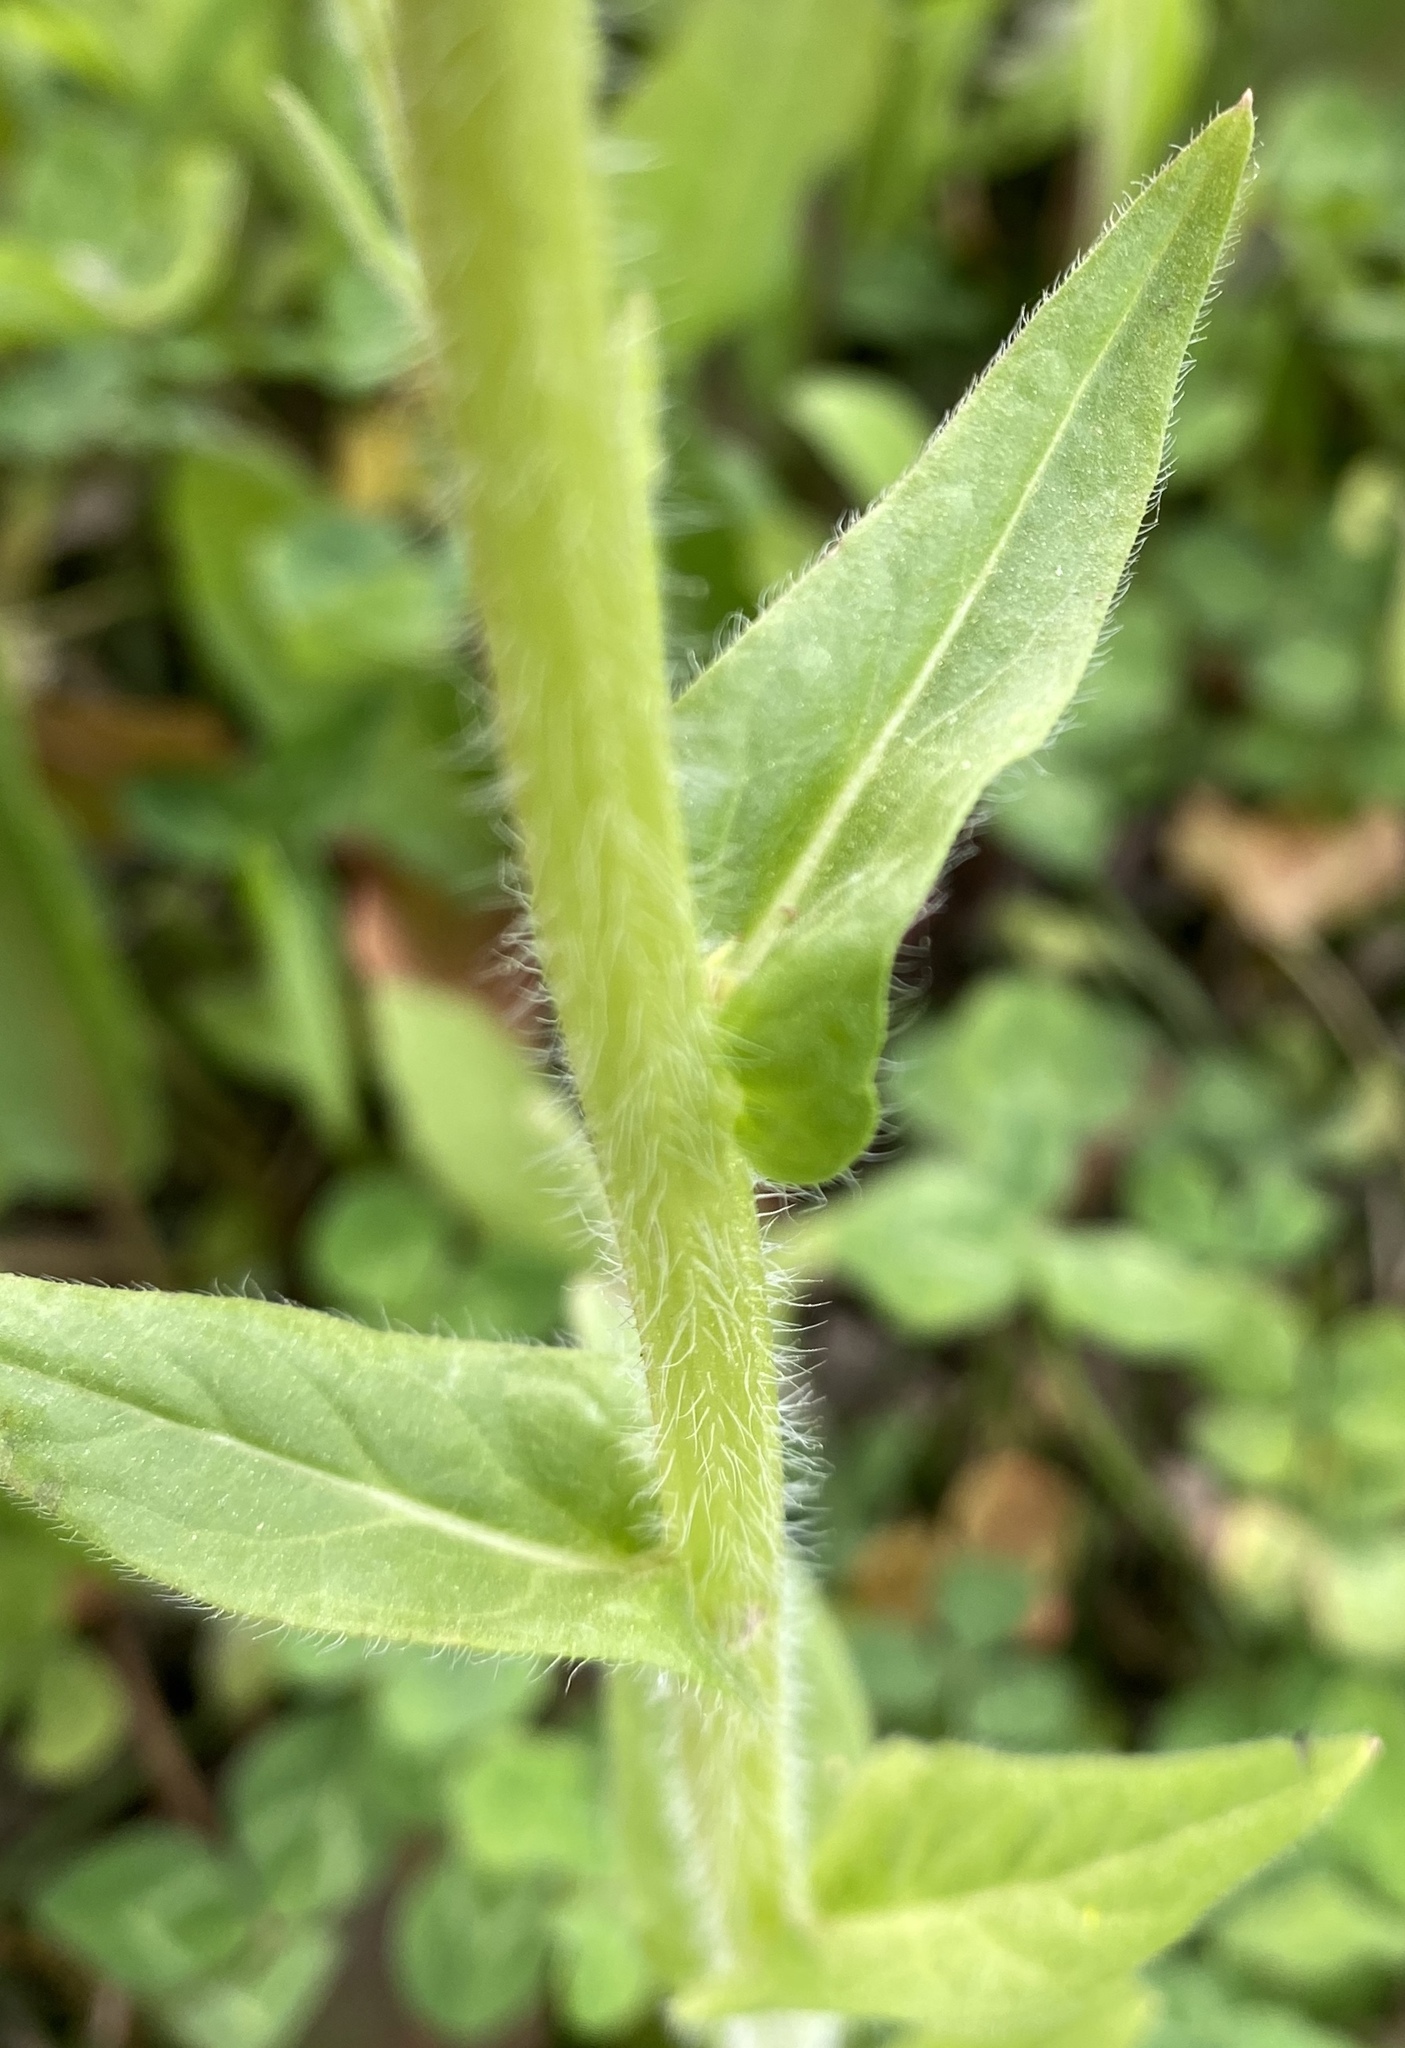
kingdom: Plantae
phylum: Tracheophyta
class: Magnoliopsida
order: Asterales
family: Asteraceae
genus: Erigeron
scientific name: Erigeron philadelphicus
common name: Robin's-plantain
